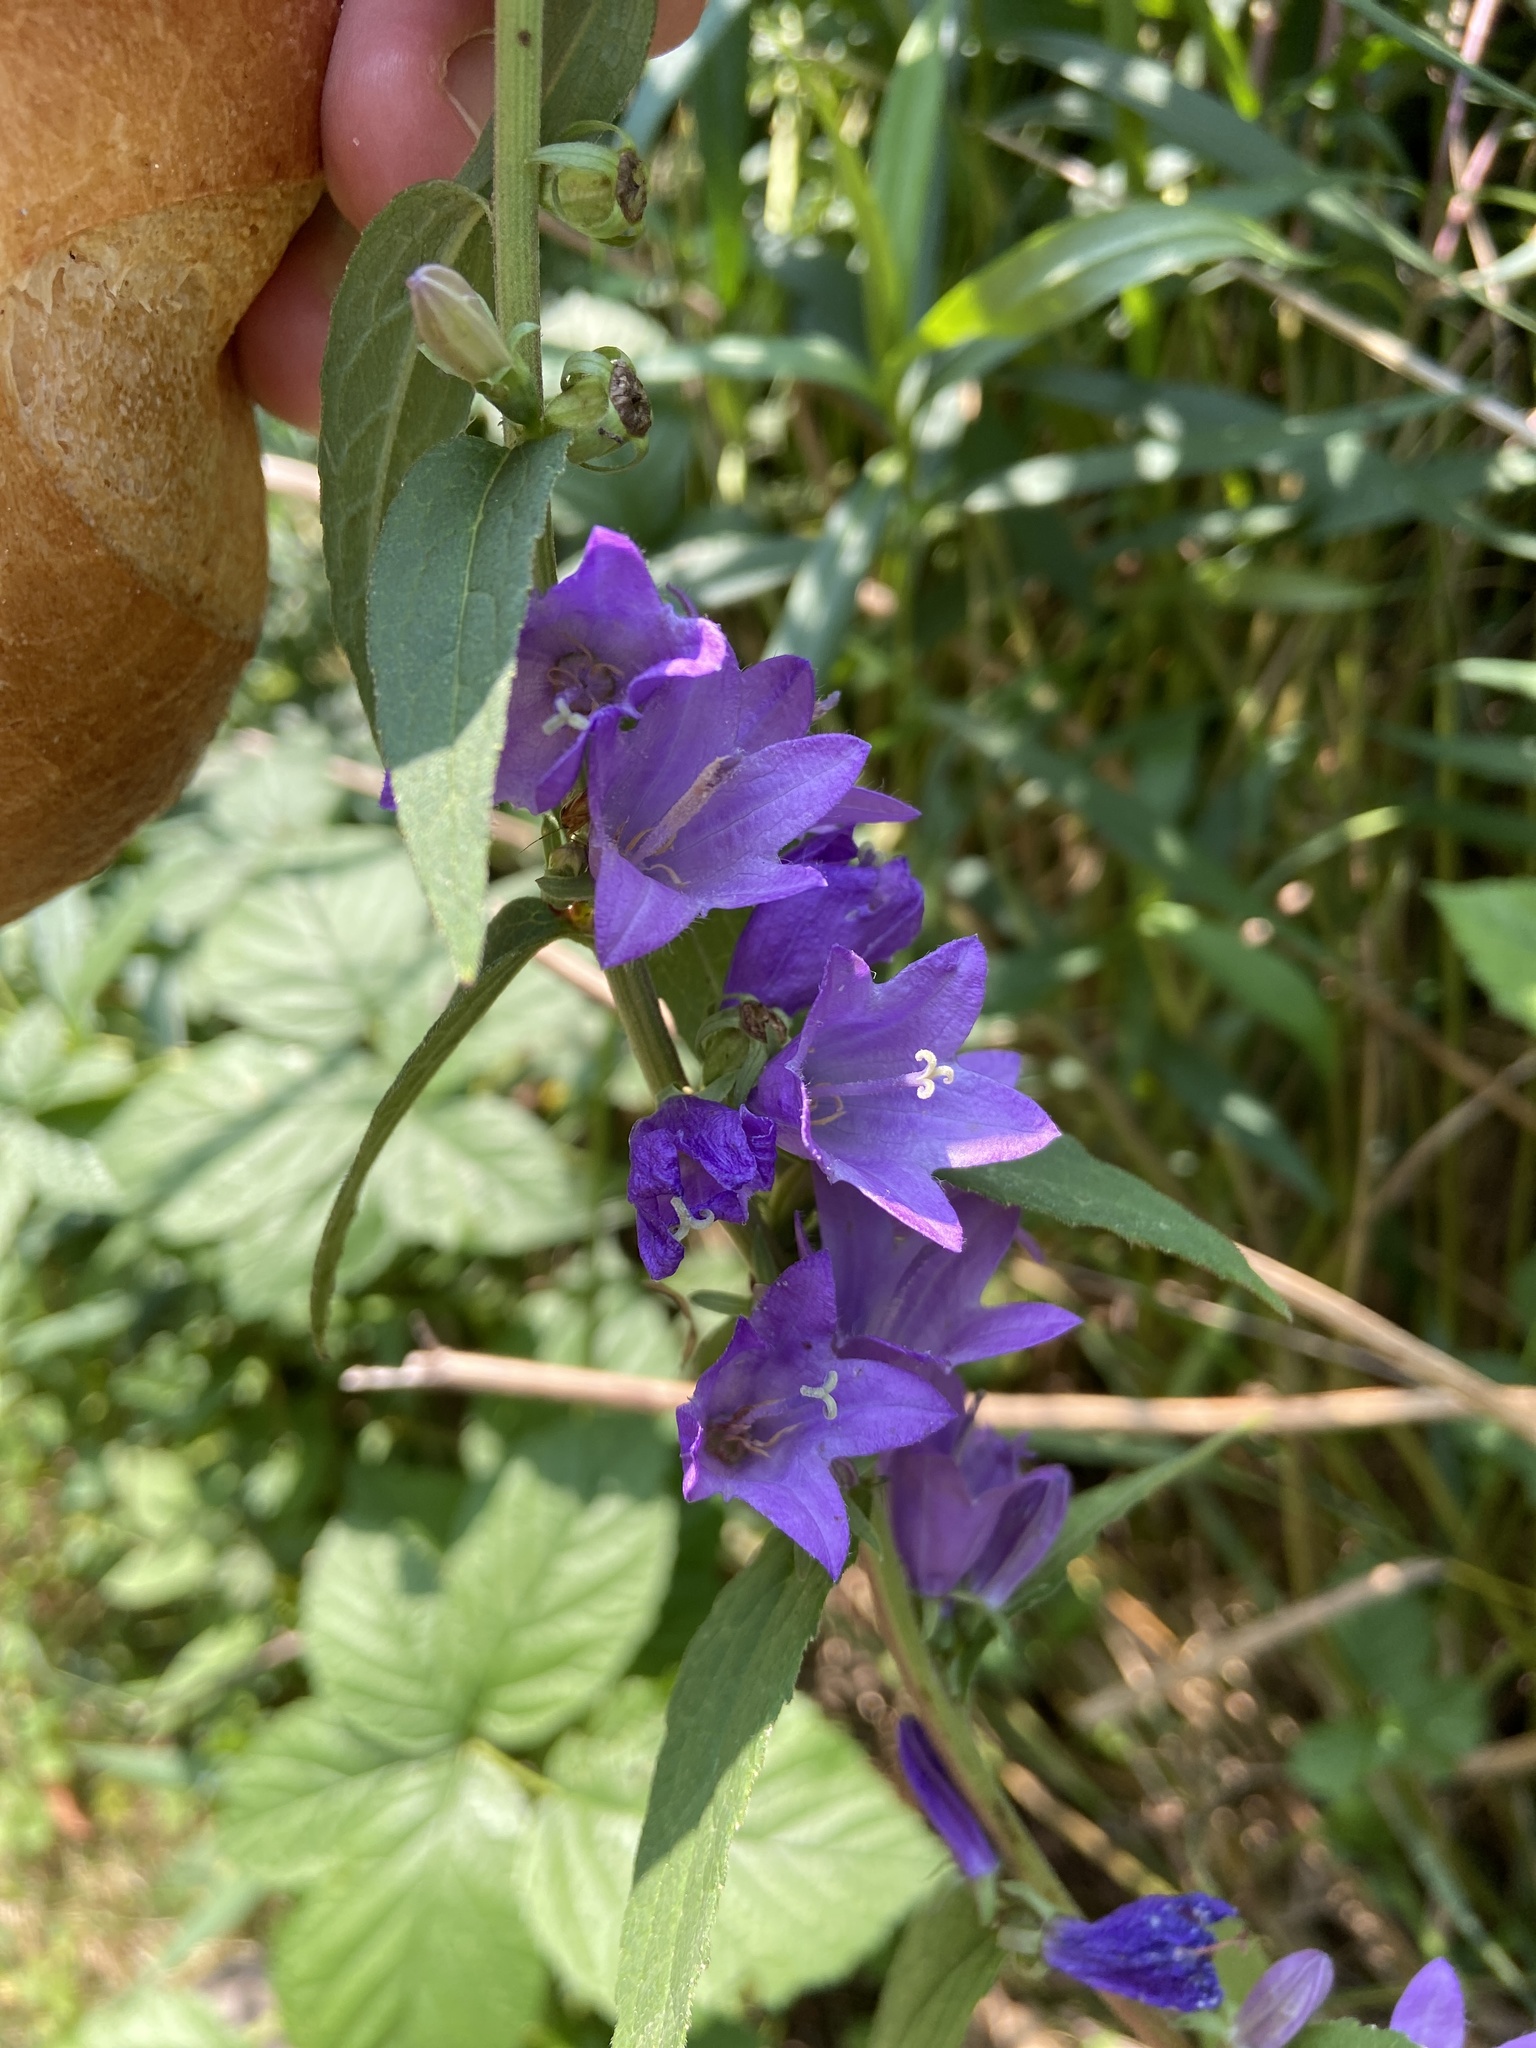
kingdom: Plantae
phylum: Tracheophyta
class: Magnoliopsida
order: Asterales
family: Campanulaceae
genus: Campanula
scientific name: Campanula glomerata
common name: Clustered bellflower
